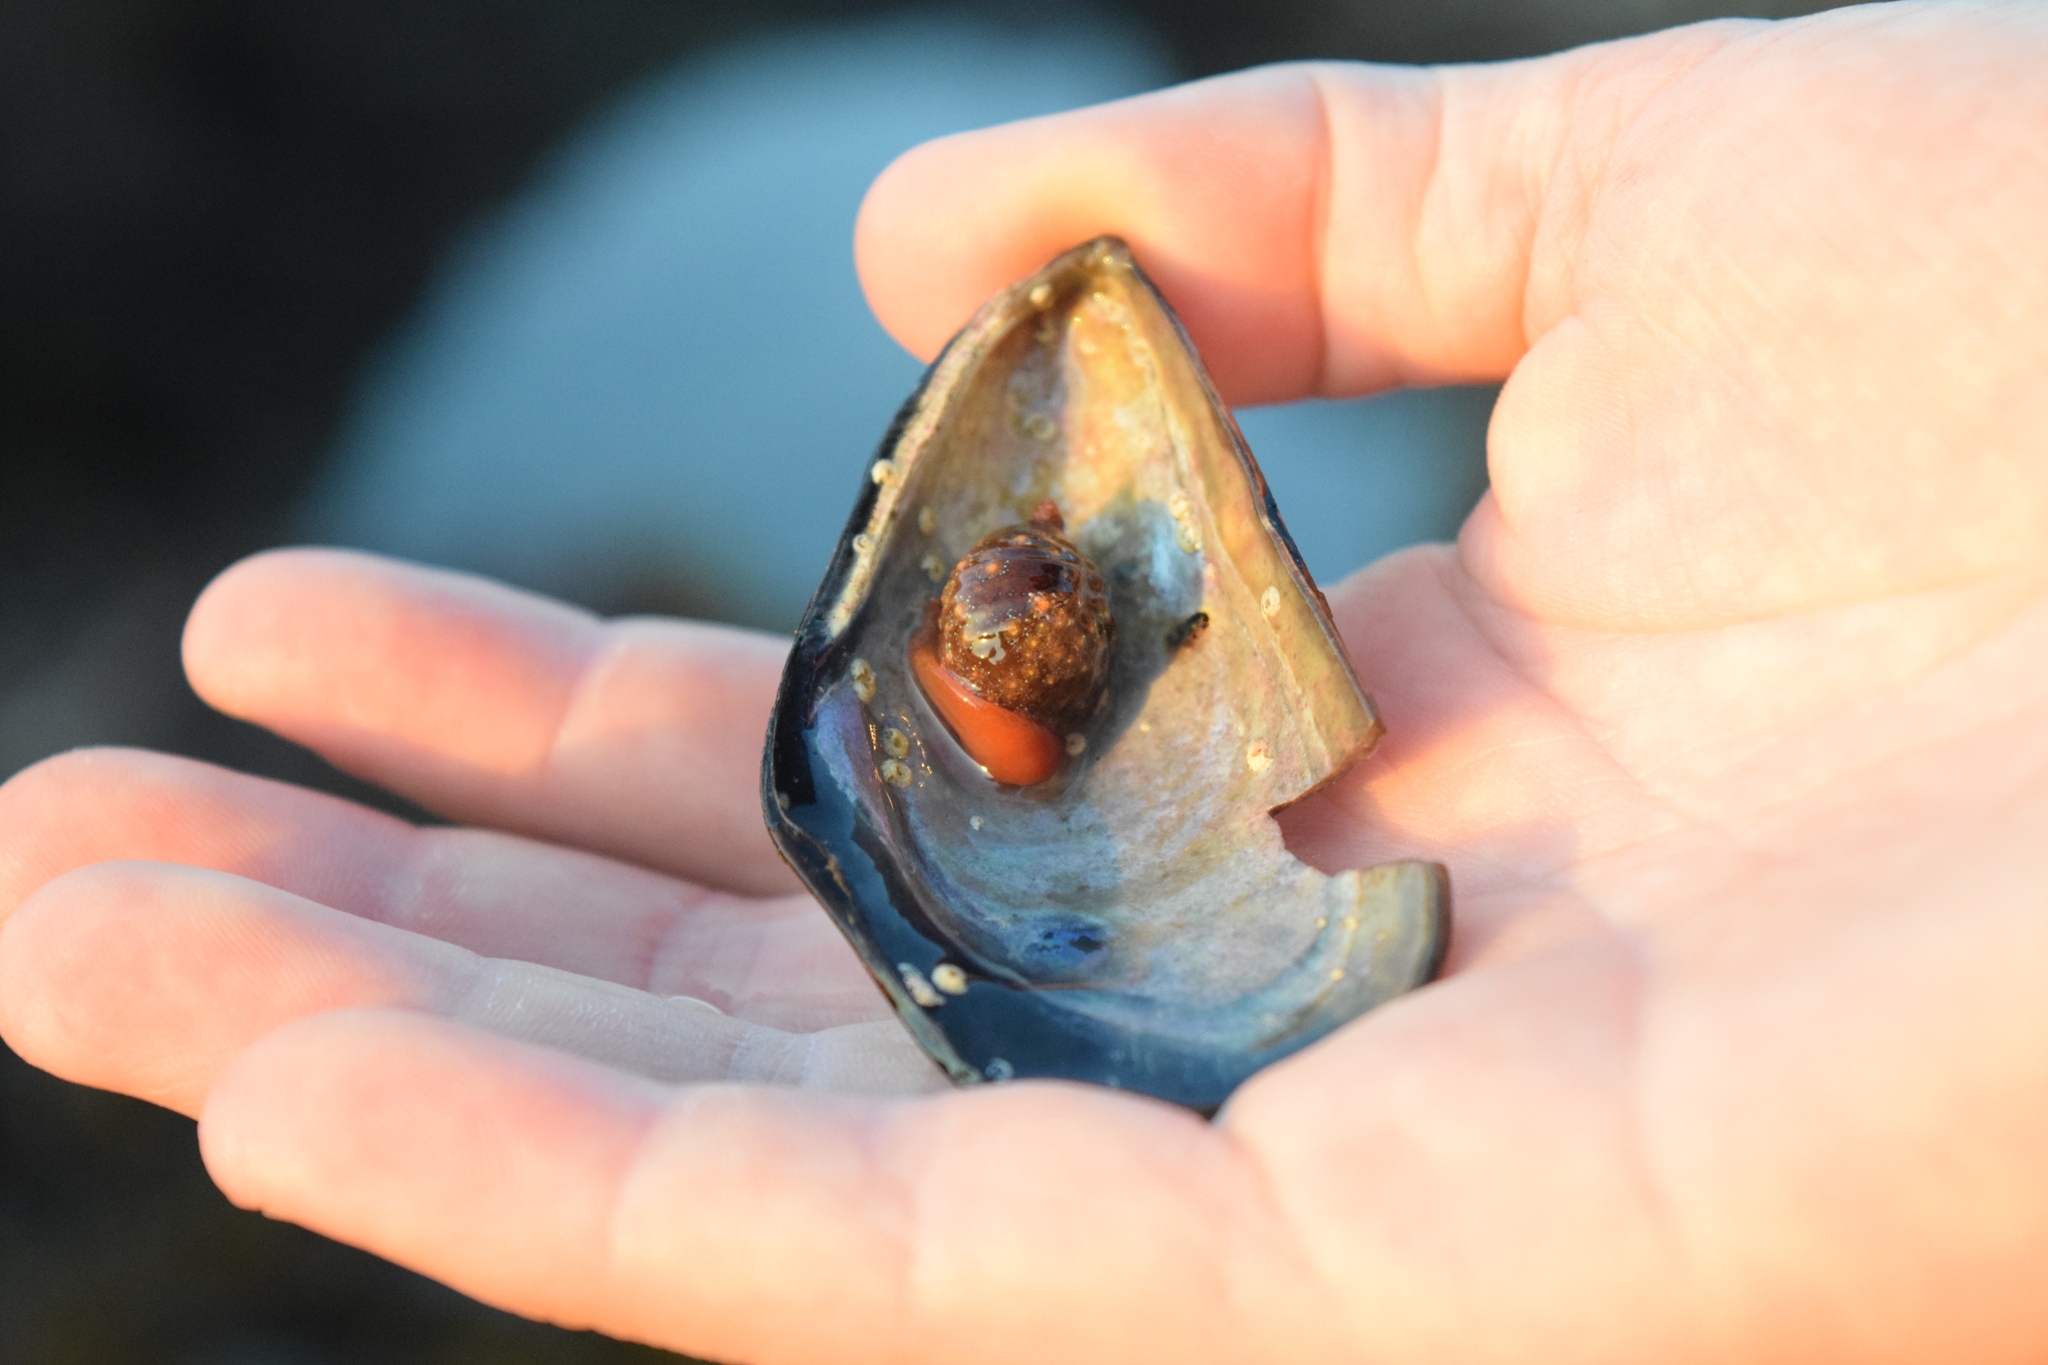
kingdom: Animalia
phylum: Mollusca
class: Gastropoda
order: Littorinimorpha
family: Triviidae
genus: Pseudopusula
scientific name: Pseudopusula californiana
